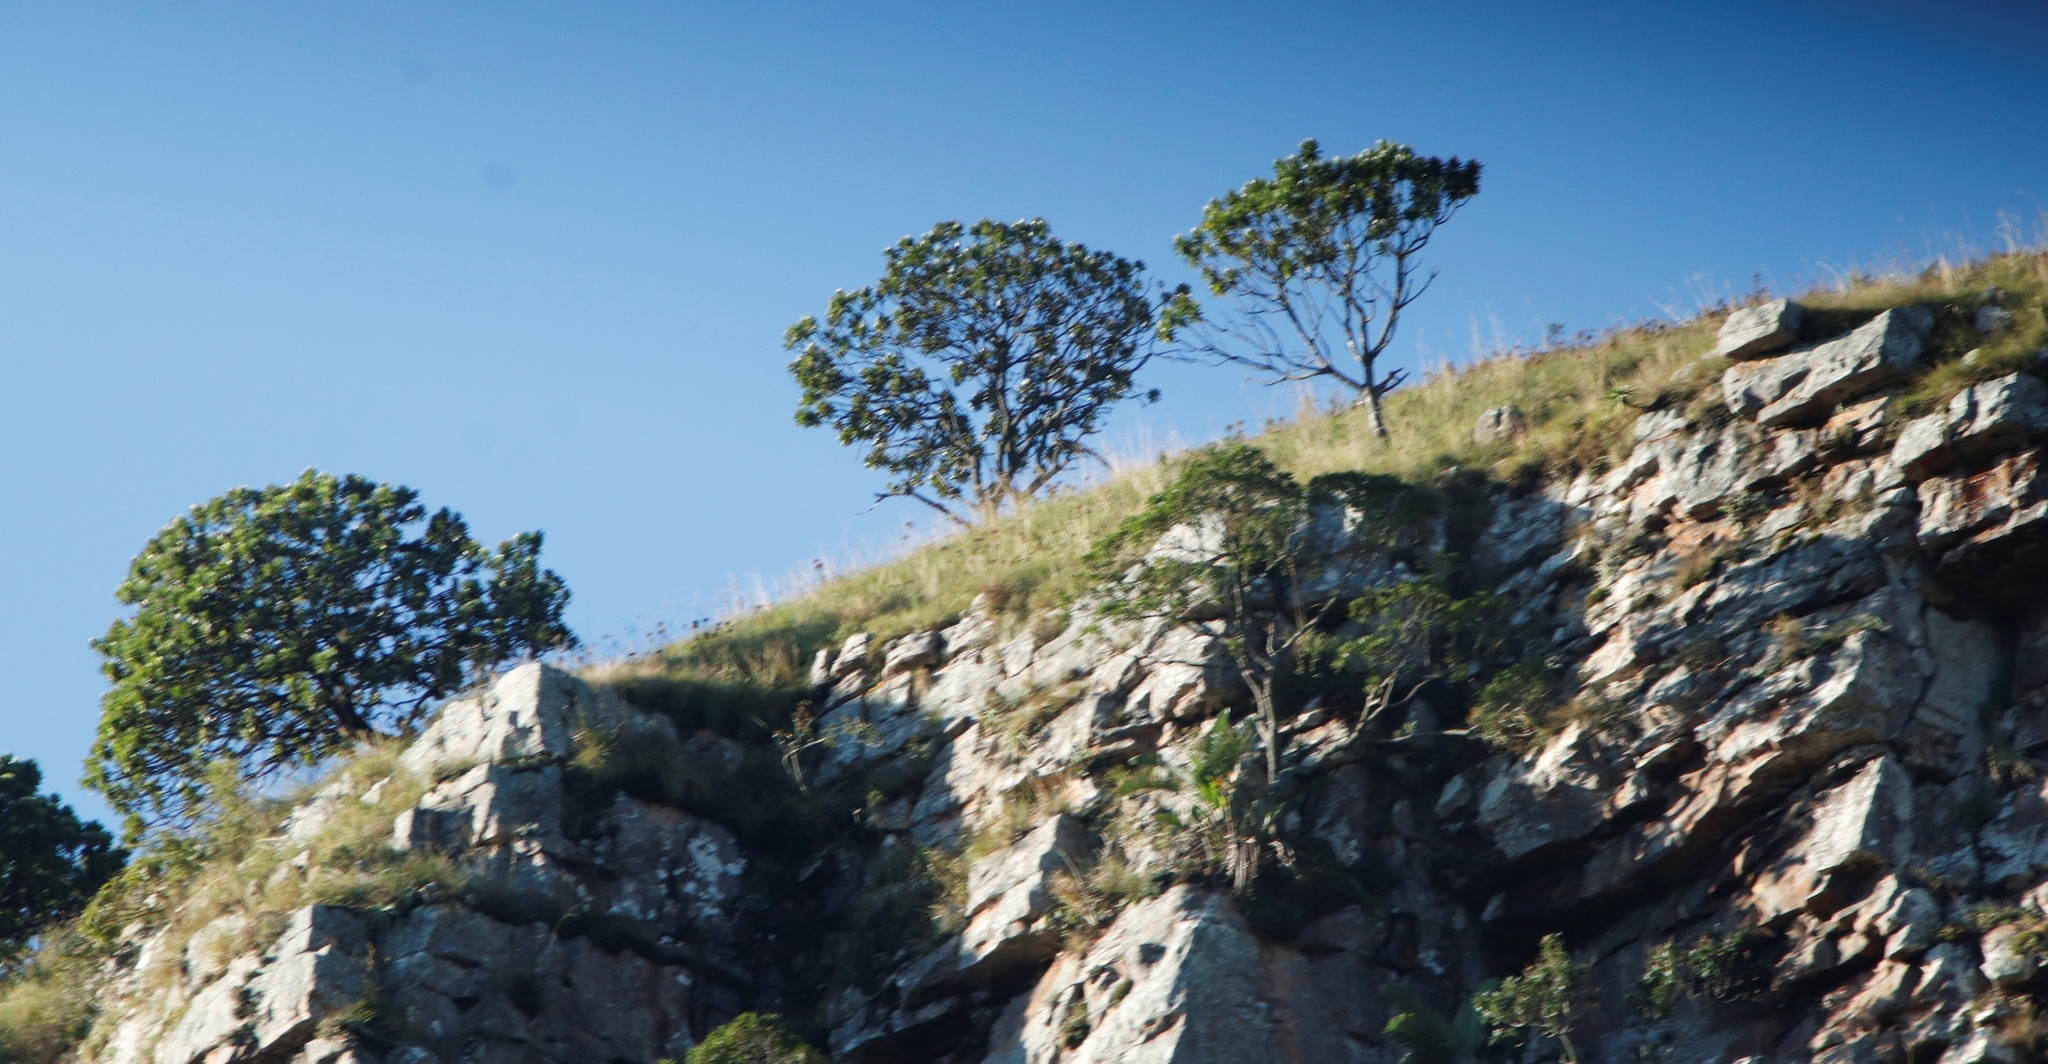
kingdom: Plantae
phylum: Tracheophyta
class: Magnoliopsida
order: Proteales
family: Proteaceae
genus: Protea
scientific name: Protea roupelliae
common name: Silver sugarbush
